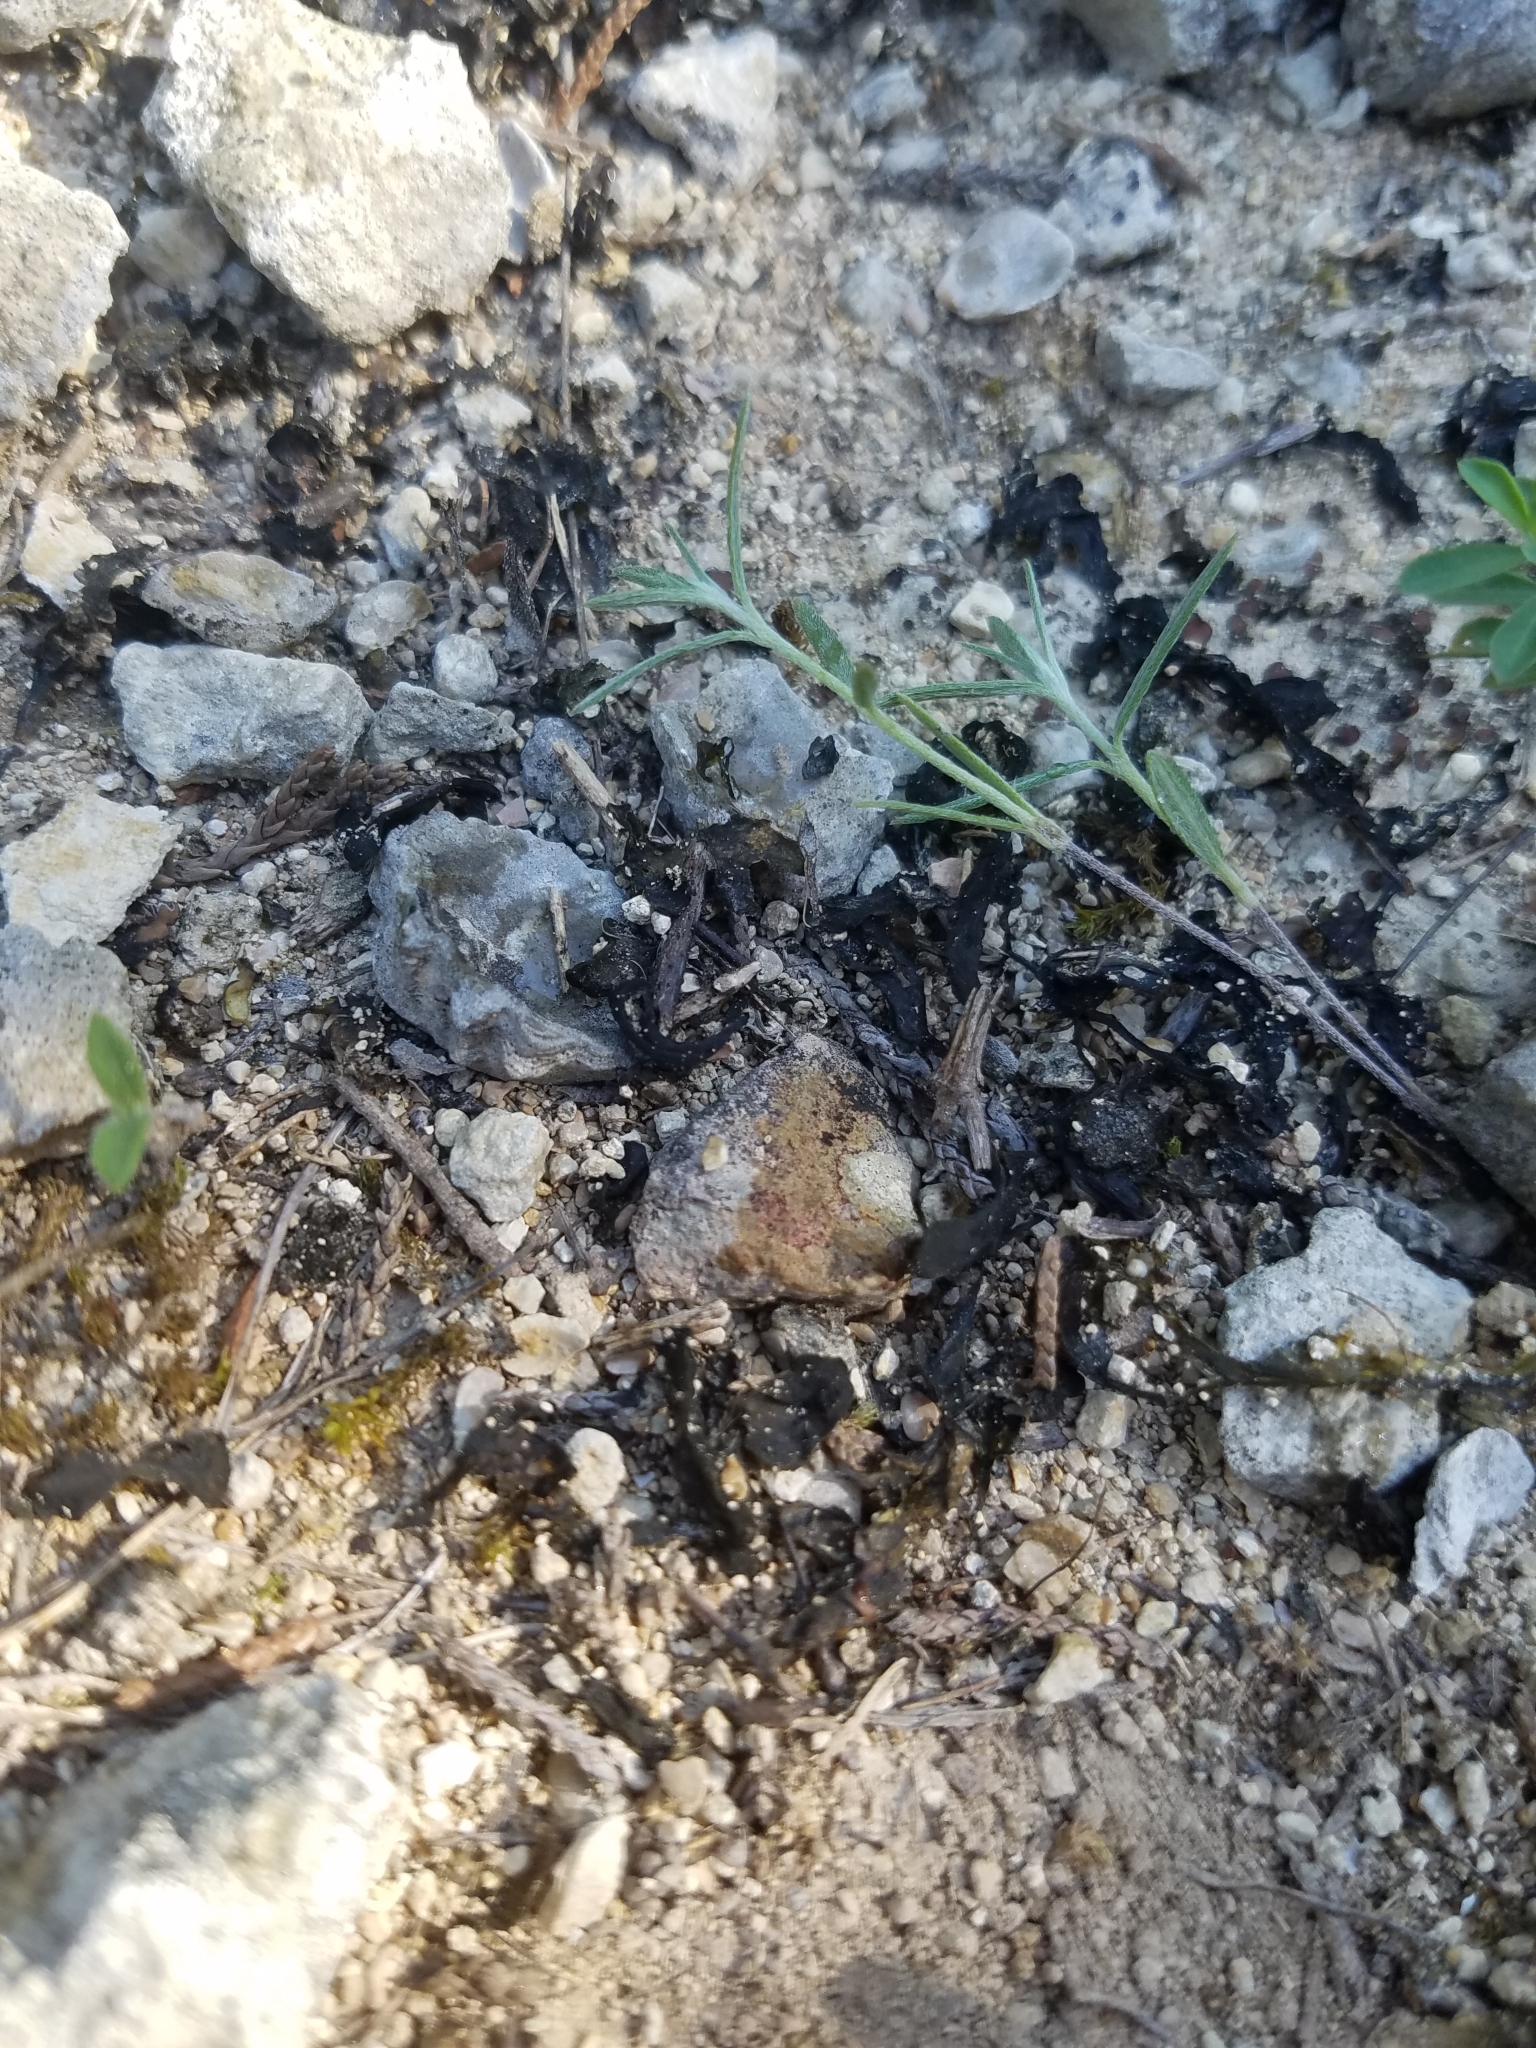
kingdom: Bacteria
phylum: Cyanobacteria
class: Cyanobacteriia
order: Cyanobacteriales
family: Nostocaceae
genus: Nostoc
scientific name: Nostoc commune
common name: Star jelly
